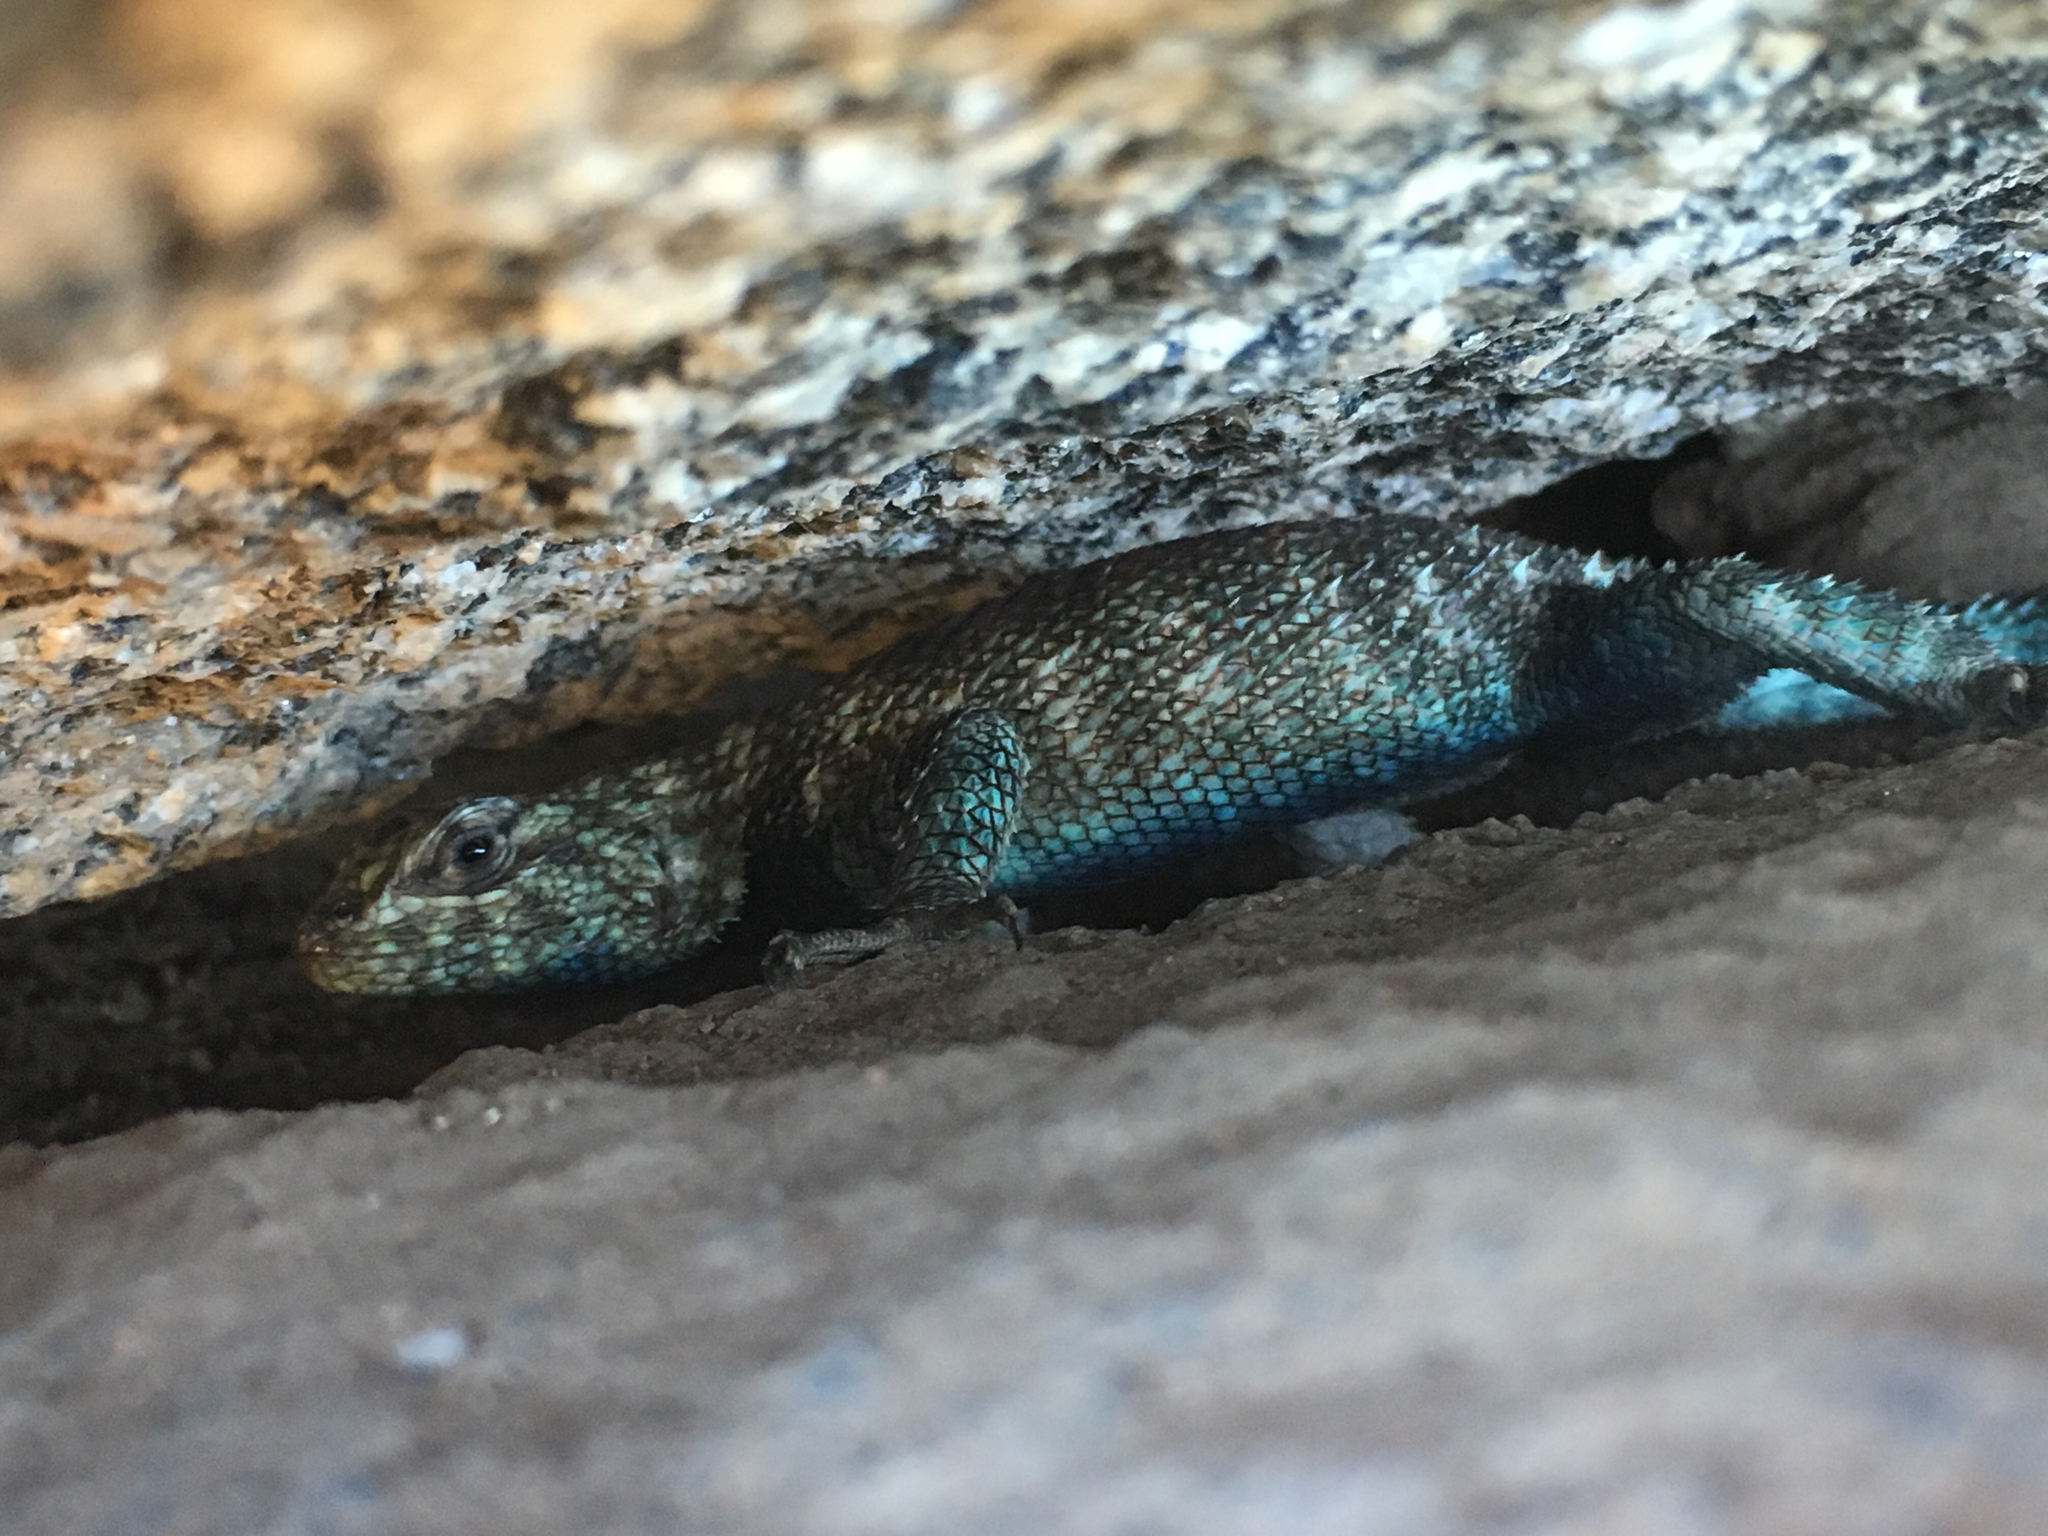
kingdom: Animalia
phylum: Chordata
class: Squamata
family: Phrynosomatidae
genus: Sceloporus
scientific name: Sceloporus orcutti
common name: Granite spiny lizard
